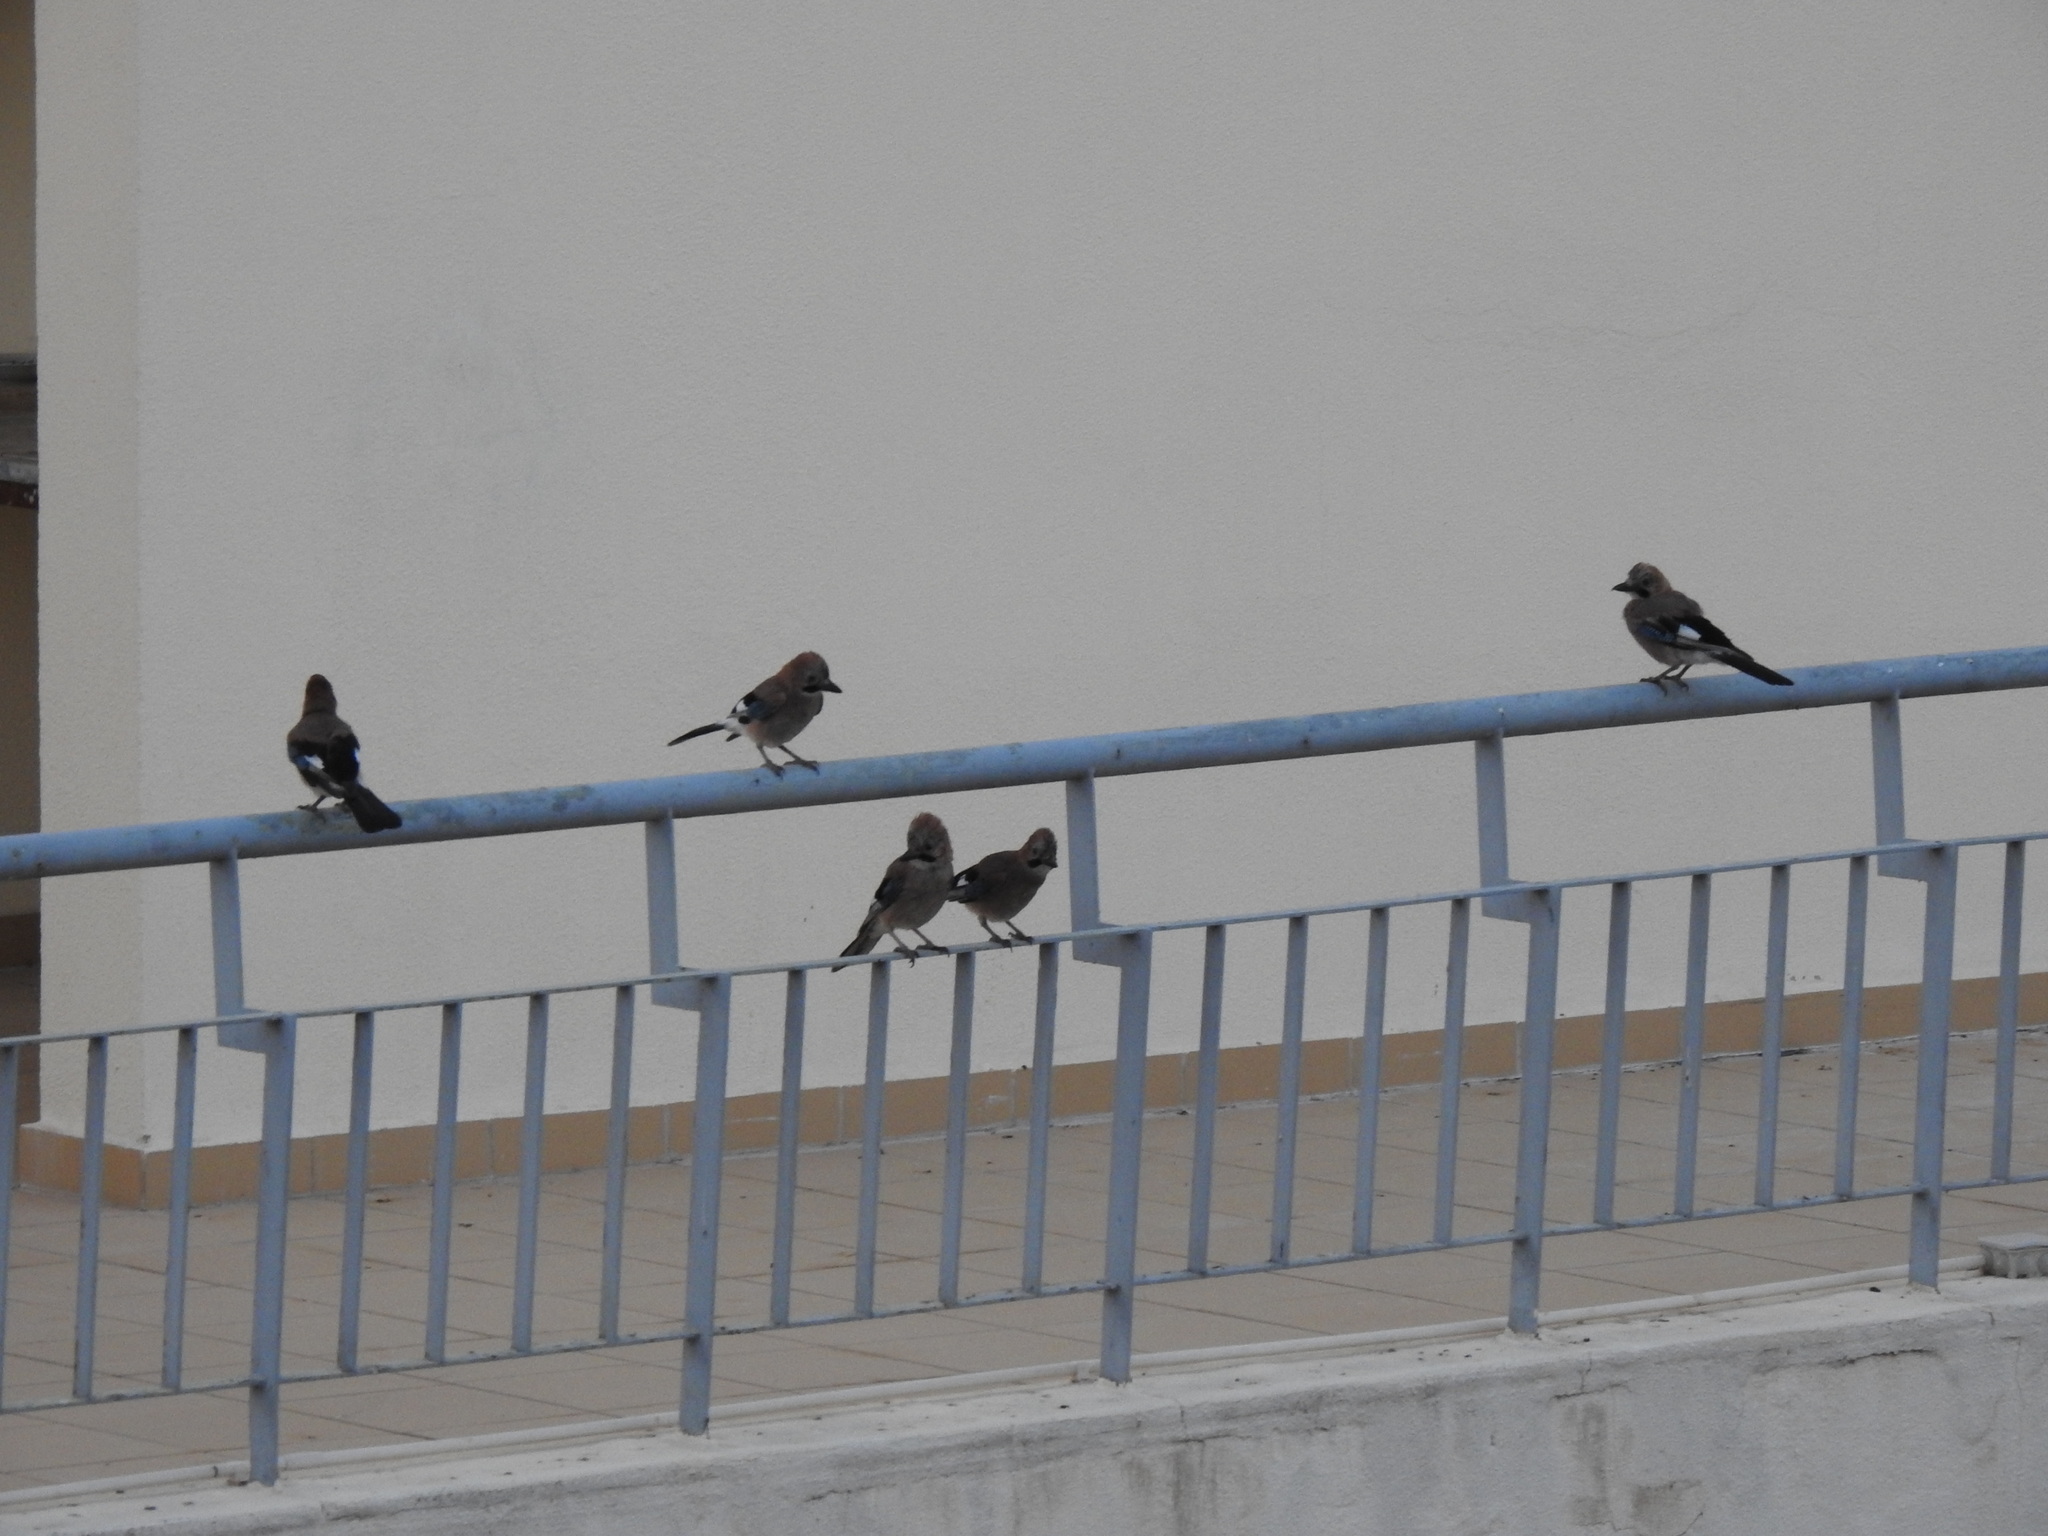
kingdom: Animalia
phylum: Chordata
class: Aves
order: Passeriformes
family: Corvidae
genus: Garrulus
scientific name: Garrulus glandarius
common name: Eurasian jay
